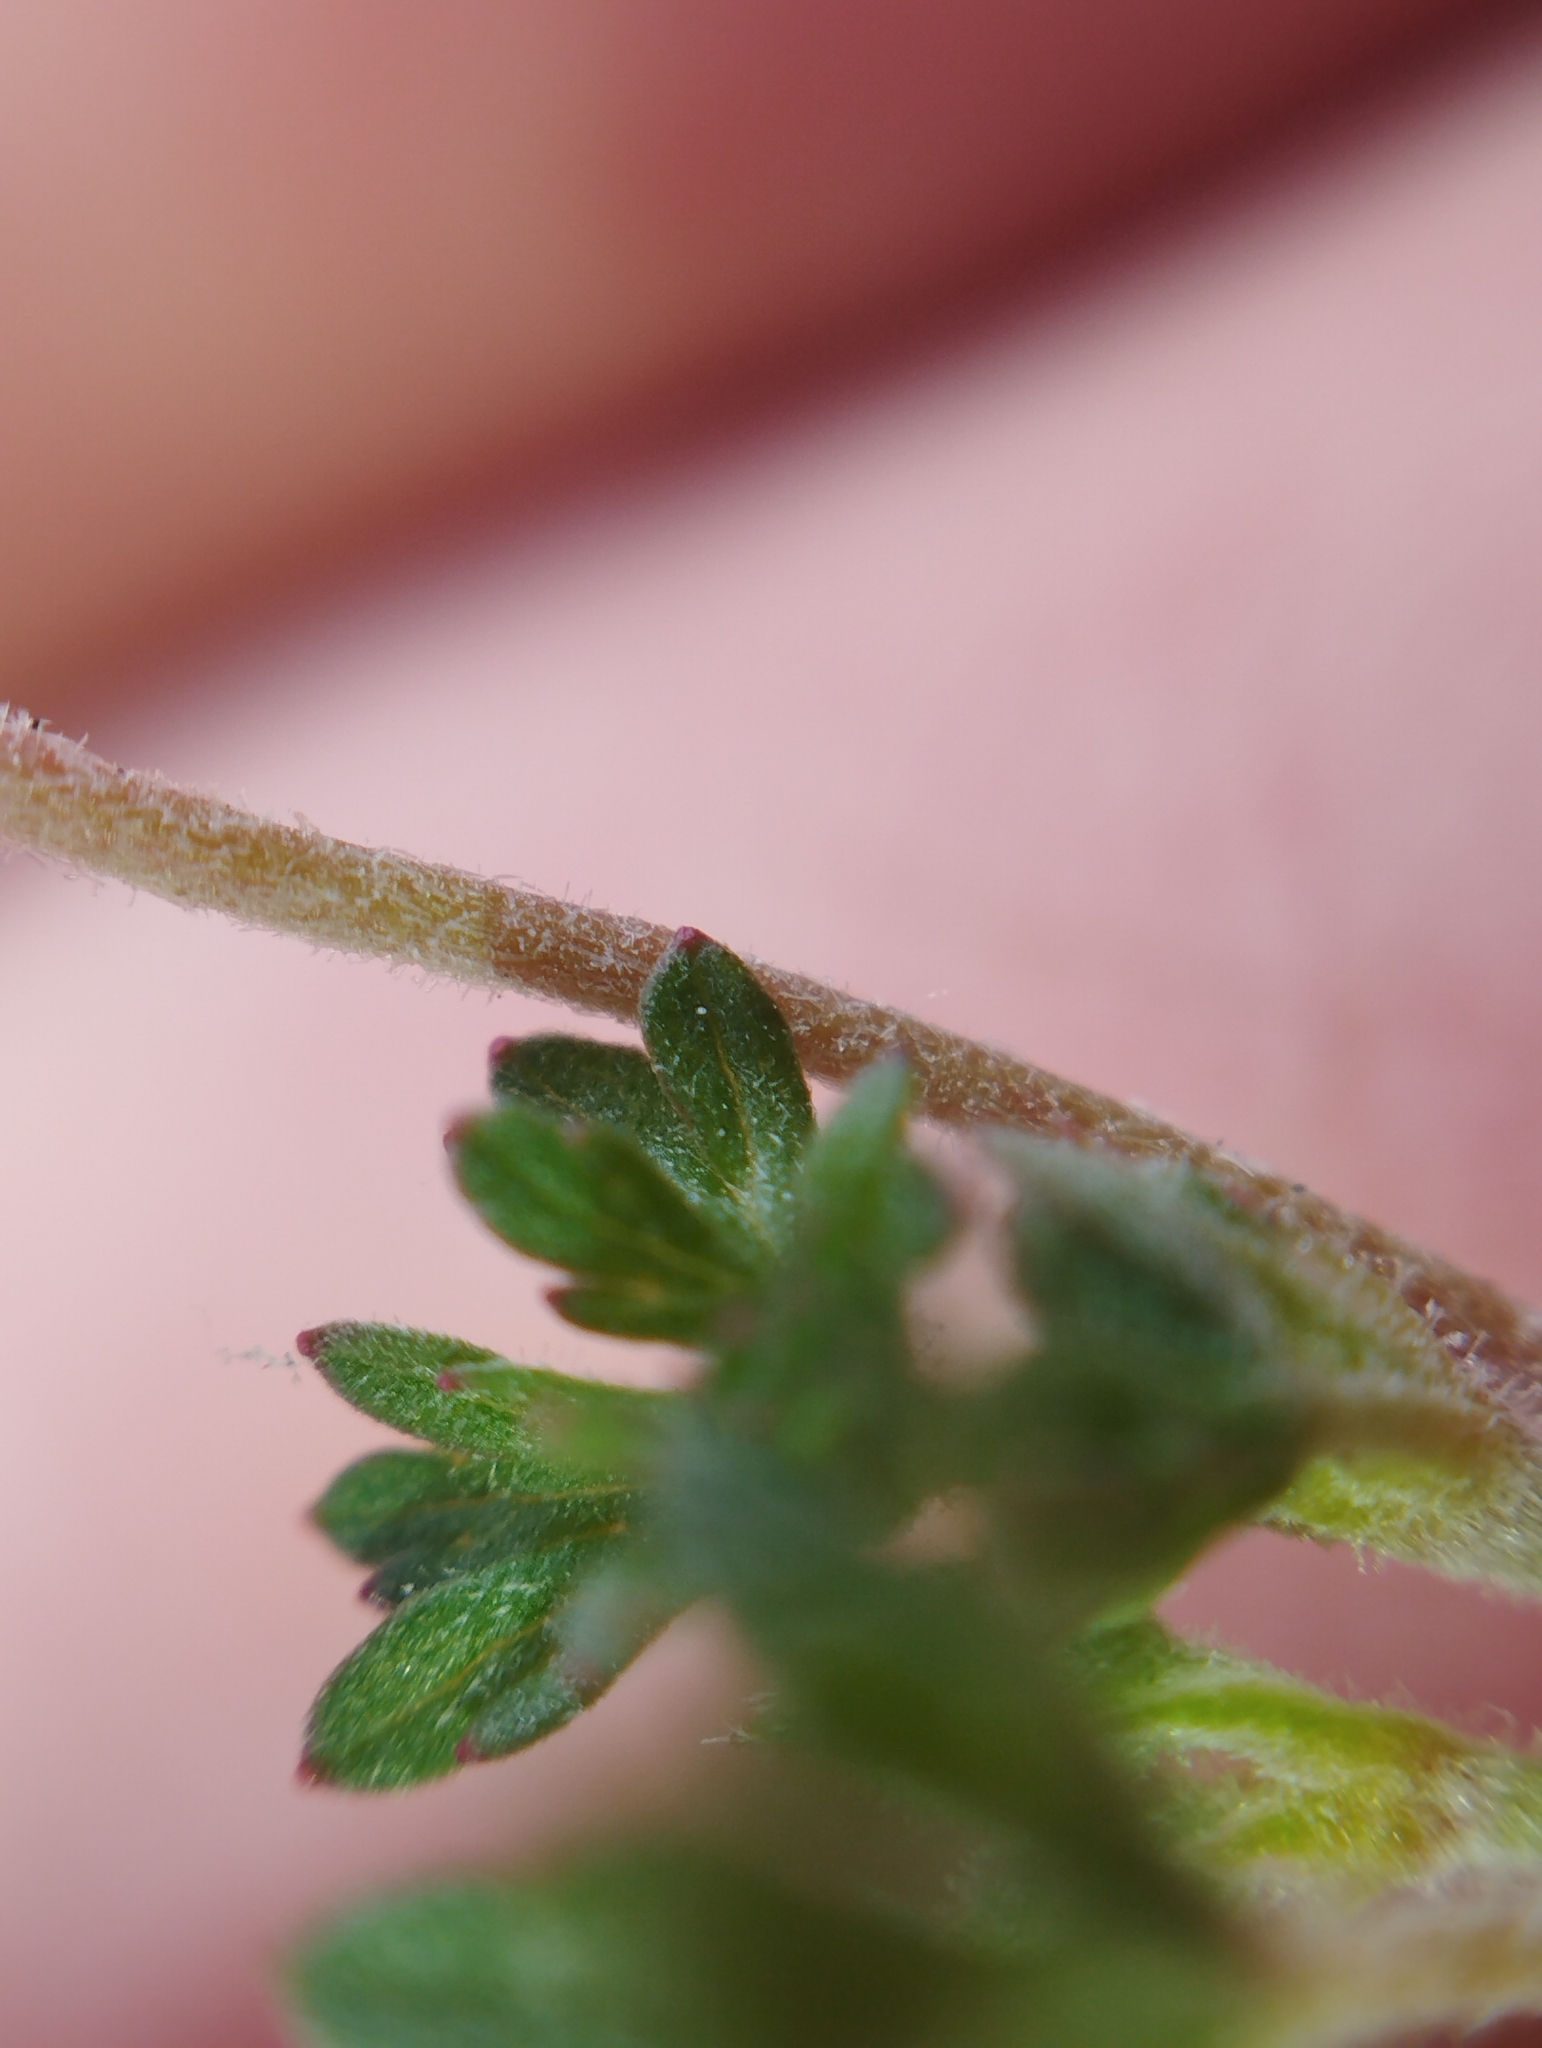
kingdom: Plantae
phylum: Tracheophyta
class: Magnoliopsida
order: Geraniales
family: Geraniaceae
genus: Geranium
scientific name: Geranium retrorsum
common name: New zealand geranium
